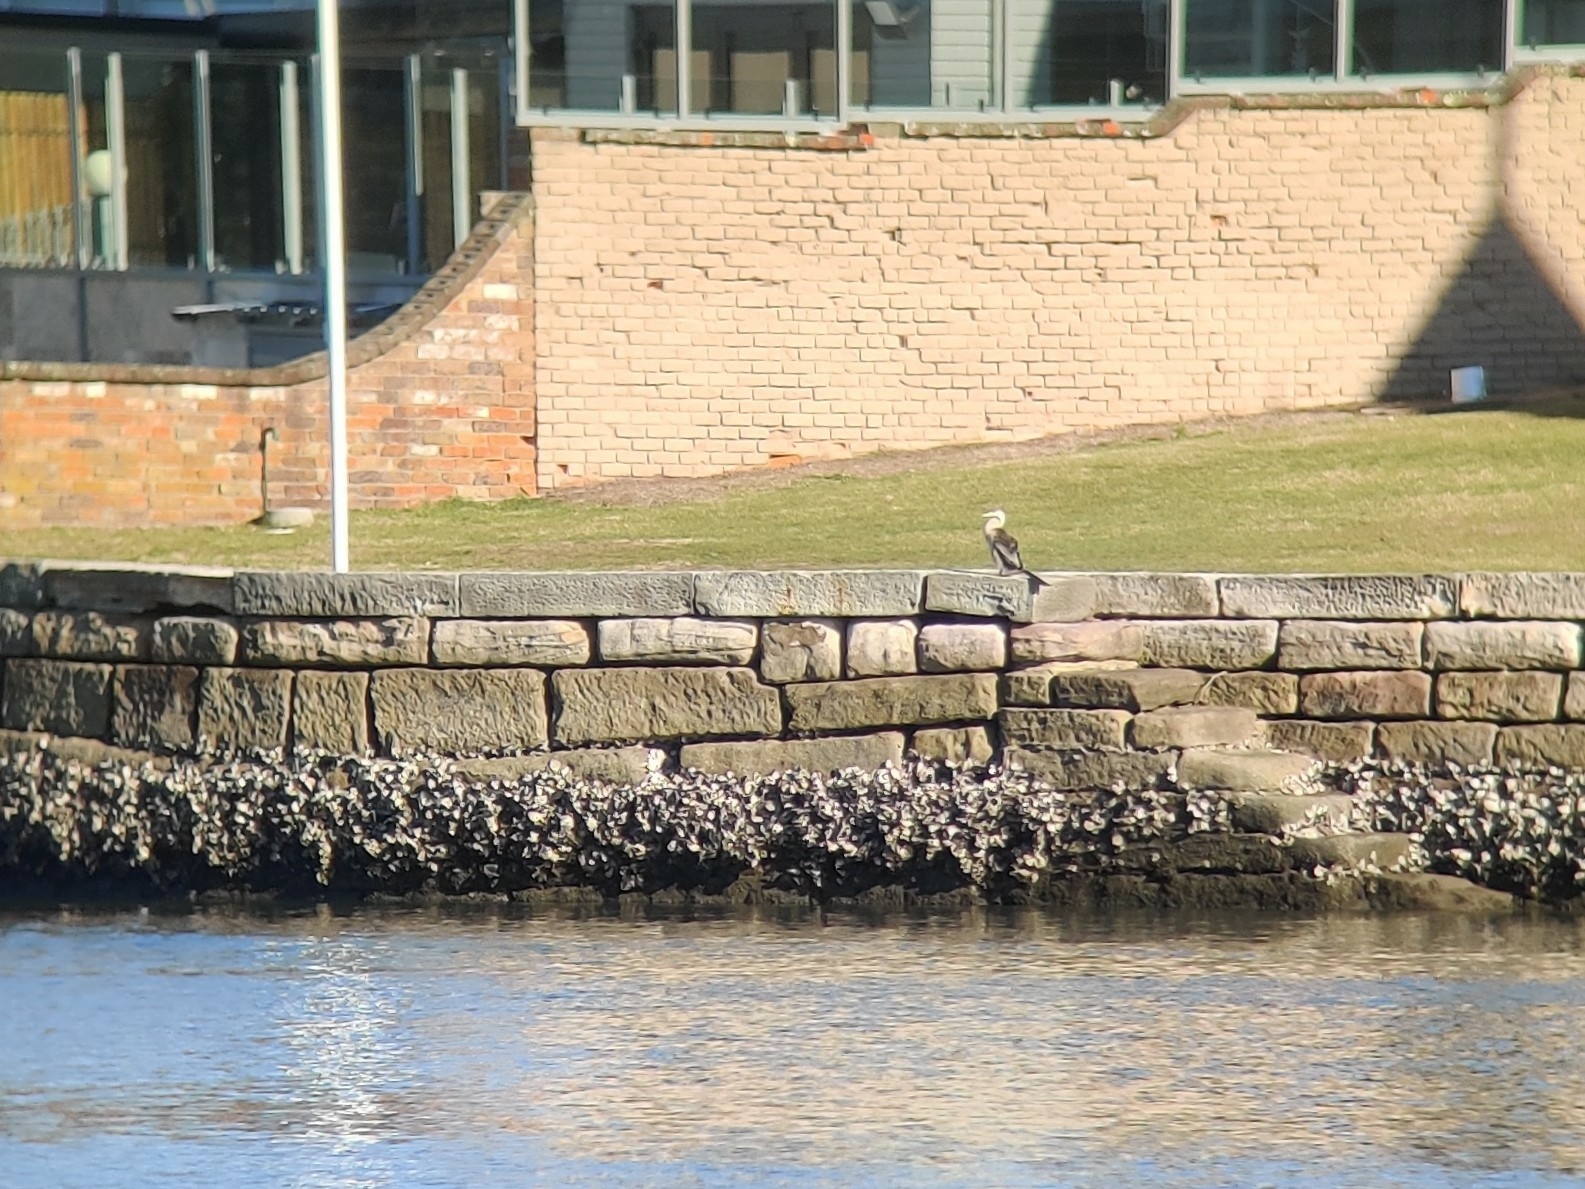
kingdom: Animalia
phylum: Chordata
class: Aves
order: Suliformes
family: Anhingidae
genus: Anhinga
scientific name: Anhinga novaehollandiae
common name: Australasian darter
